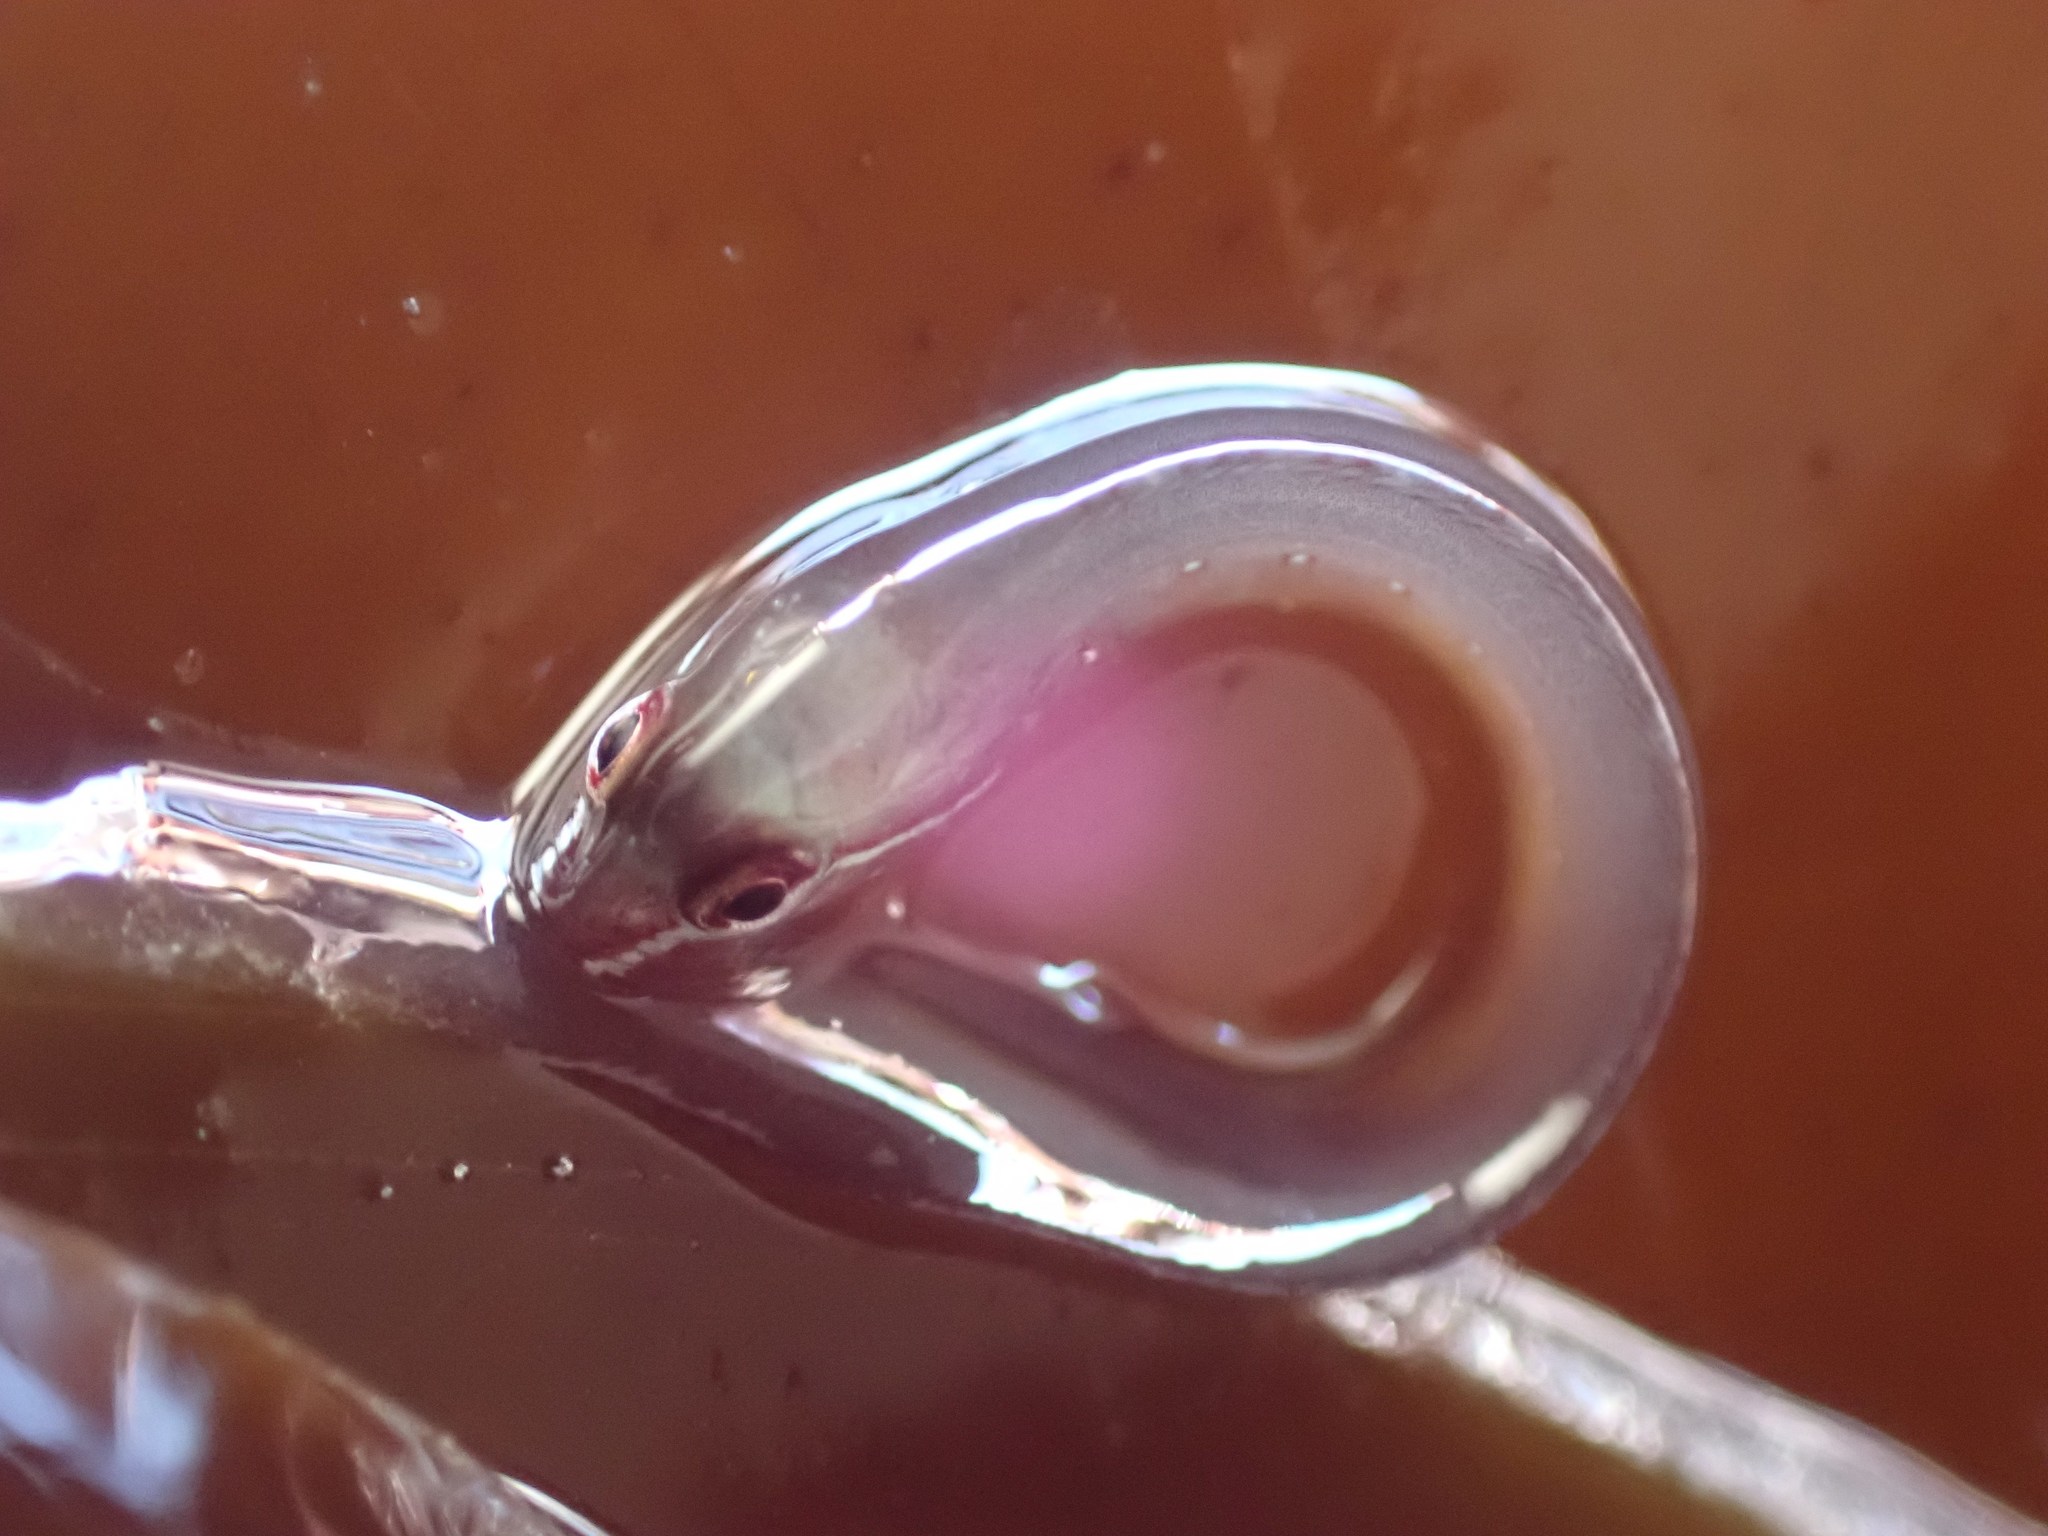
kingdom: Animalia
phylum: Chordata
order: Perciformes
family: Pholidae
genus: Apodichthys
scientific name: Apodichthys flavidus
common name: Penpoint gunnel
